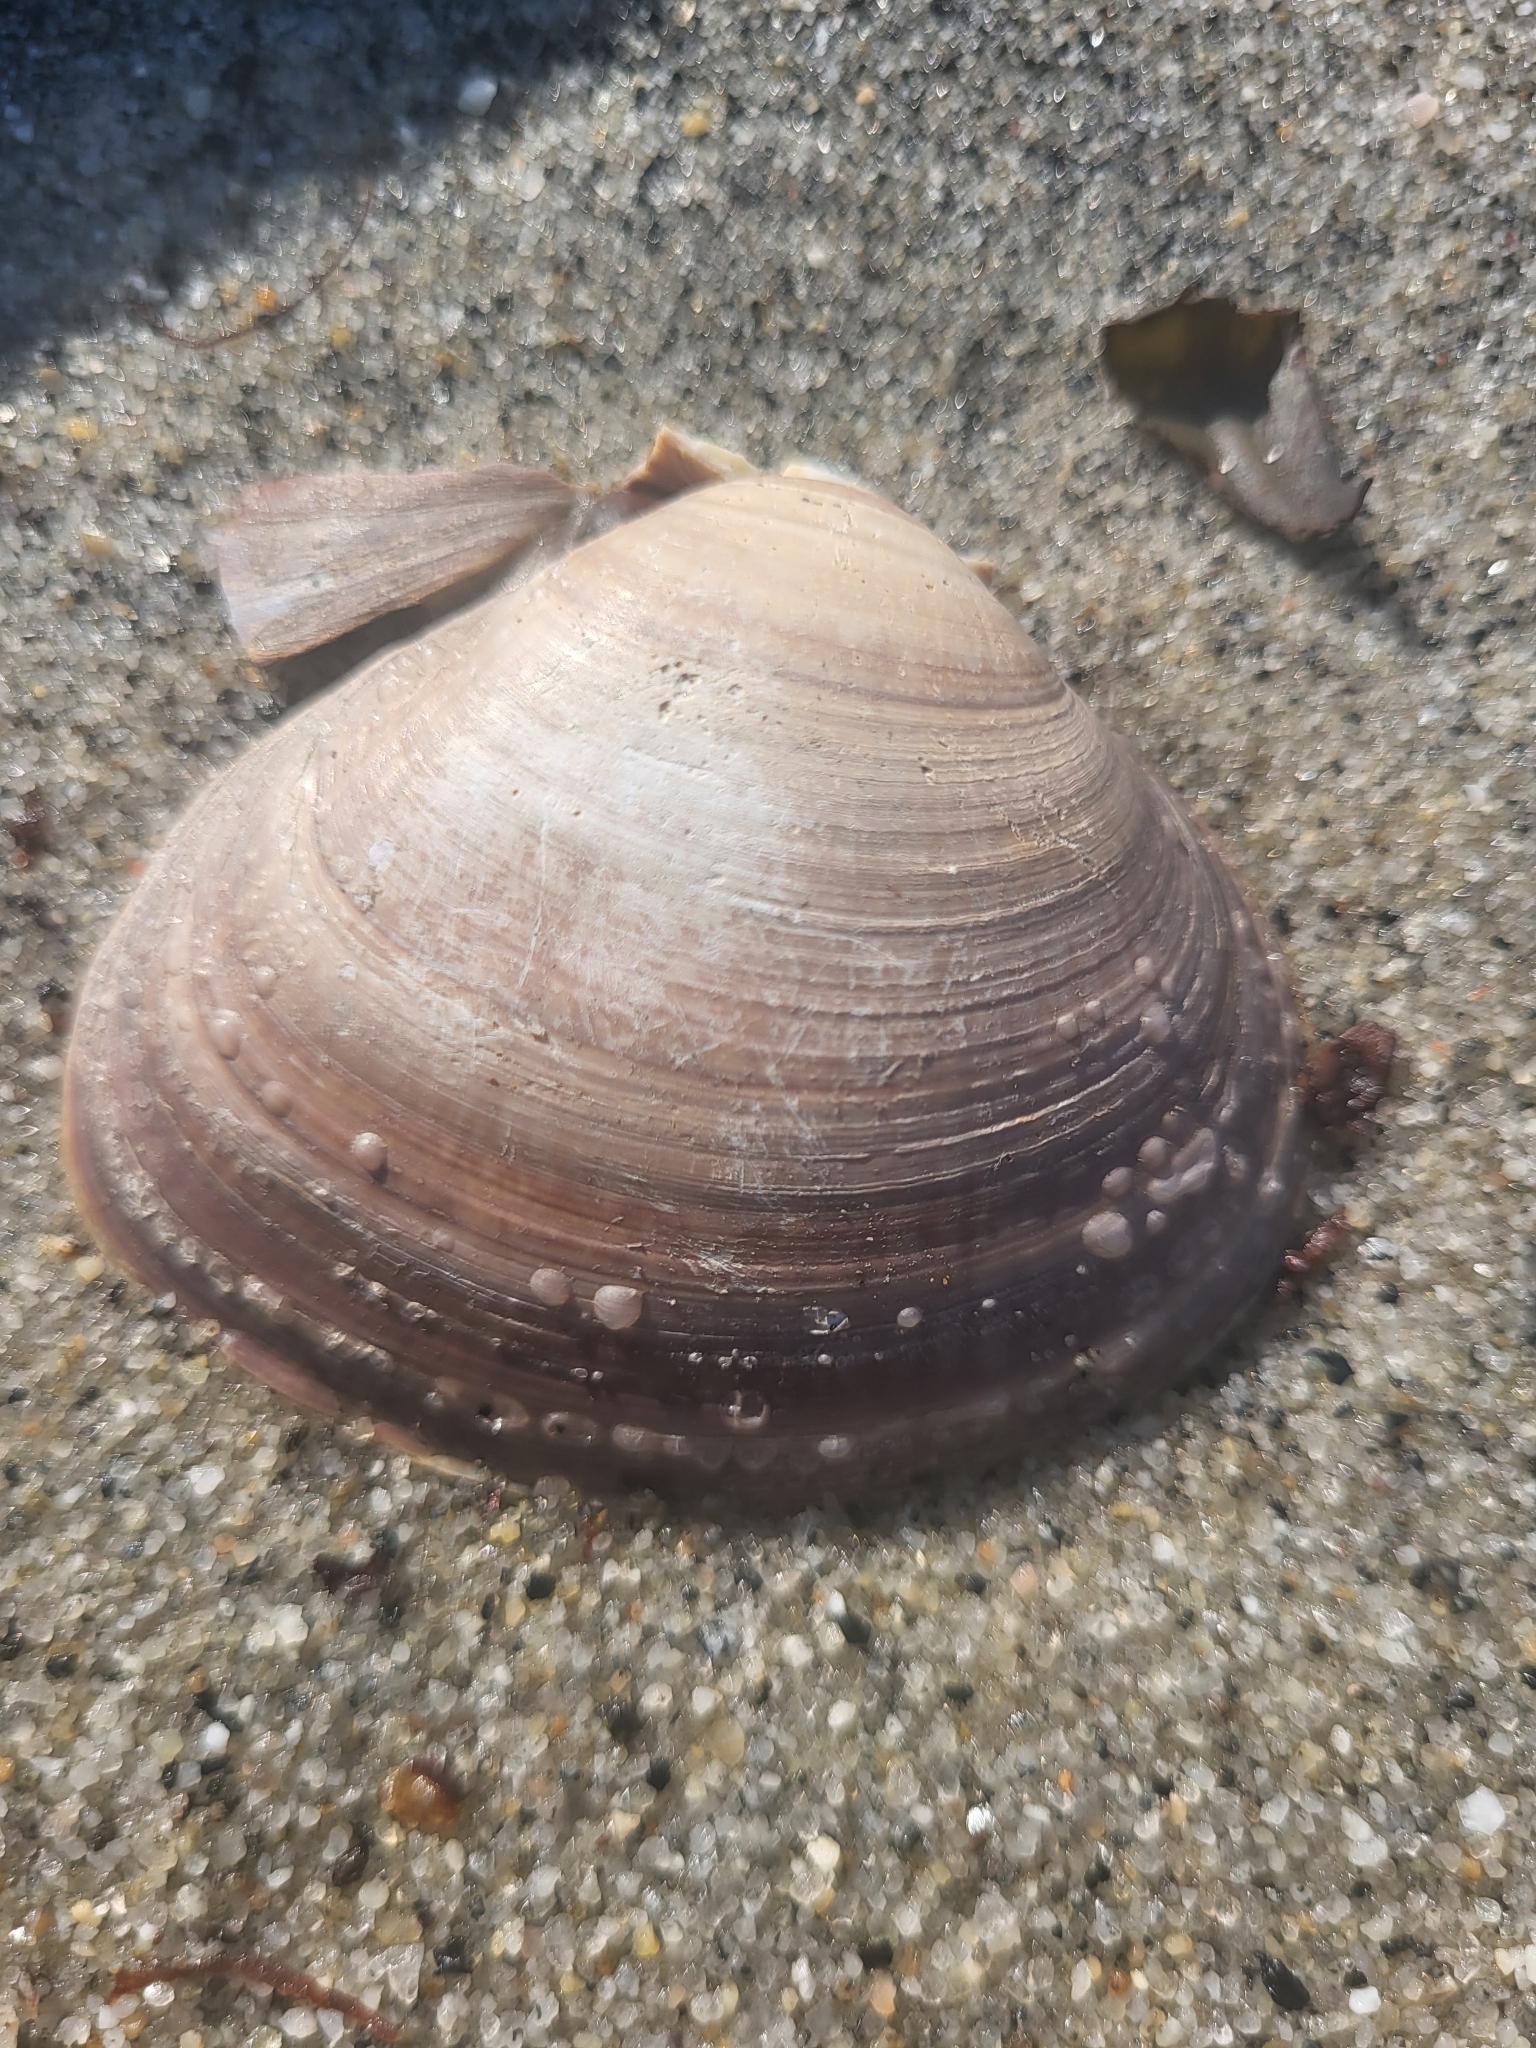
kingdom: Animalia
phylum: Mollusca
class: Bivalvia
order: Cardiida
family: Cardiidae
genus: Serripes
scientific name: Serripes groenlandicus
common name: Greenland cockle
